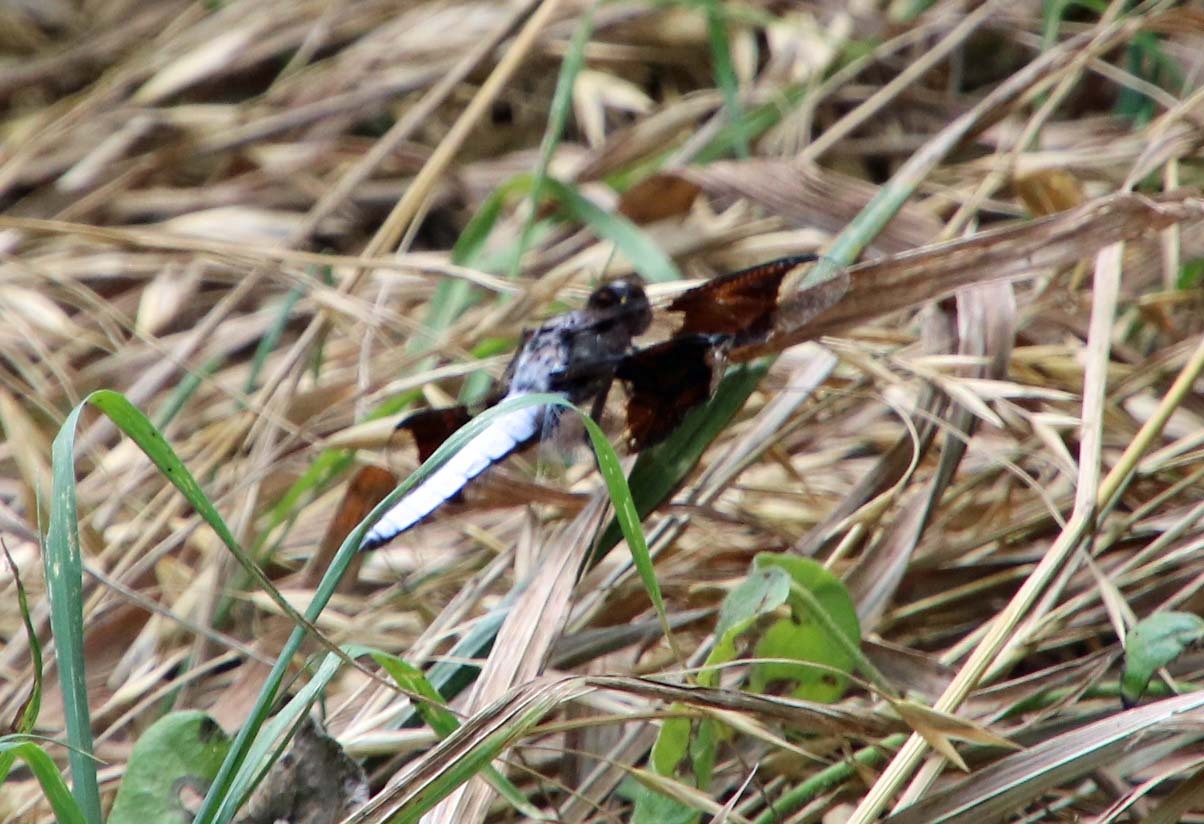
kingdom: Animalia
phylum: Arthropoda
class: Insecta
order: Odonata
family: Libellulidae
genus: Plathemis
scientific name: Plathemis lydia
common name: Common whitetail
